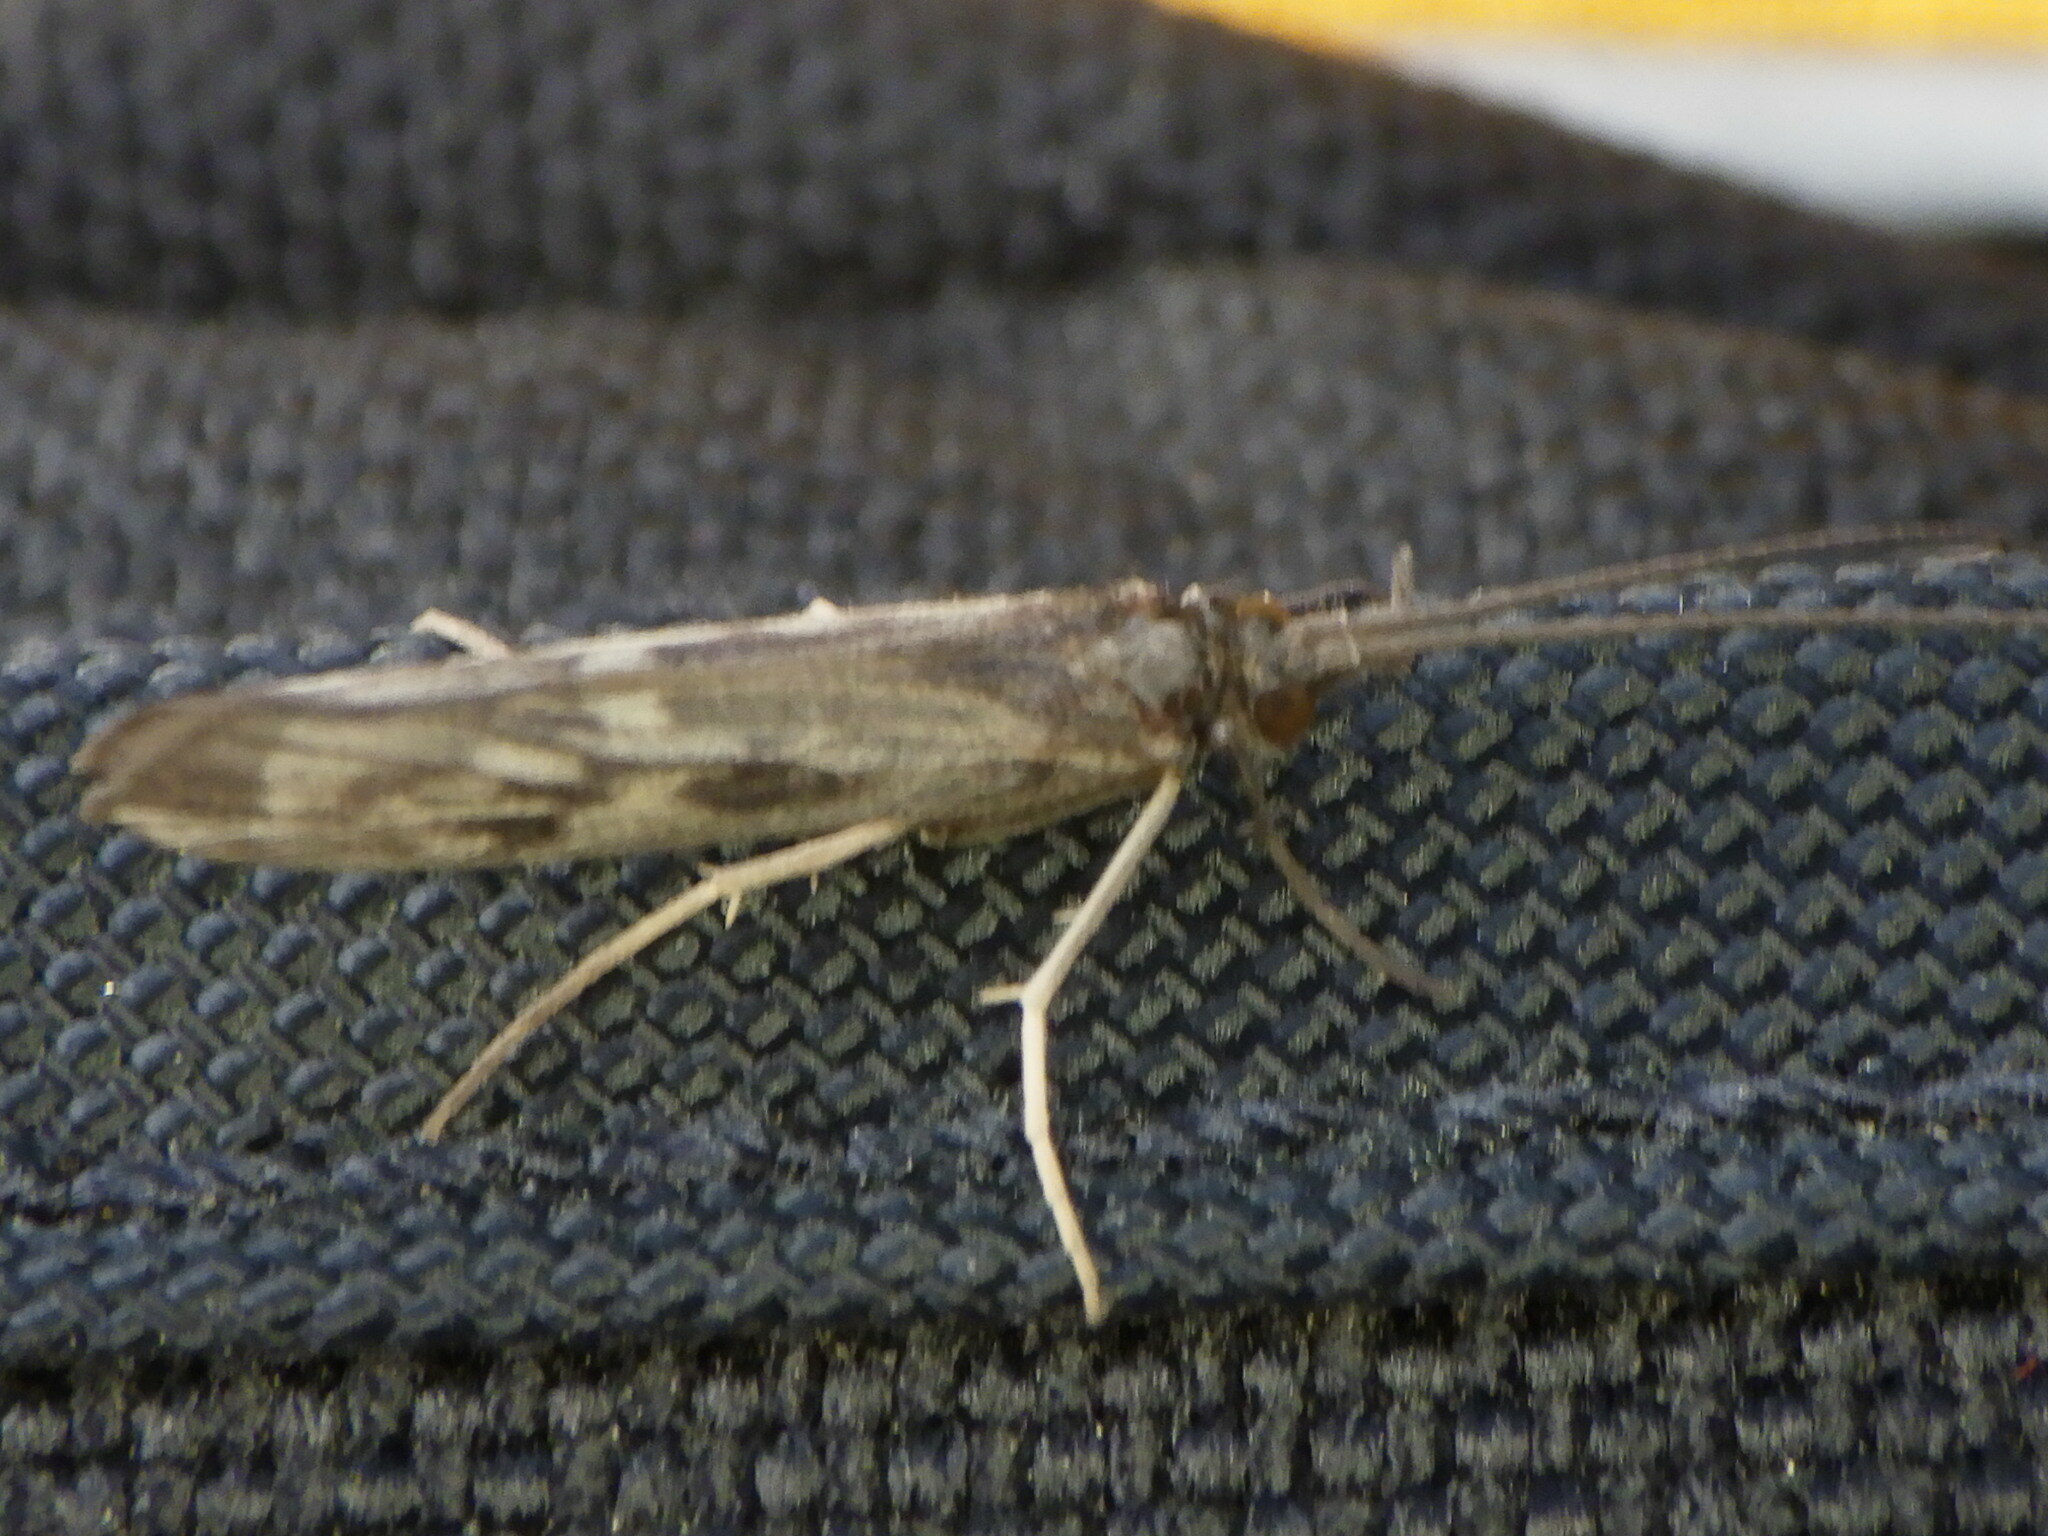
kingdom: Animalia
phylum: Arthropoda
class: Insecta
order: Trichoptera
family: Molannidae
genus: Molanna
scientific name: Molanna
